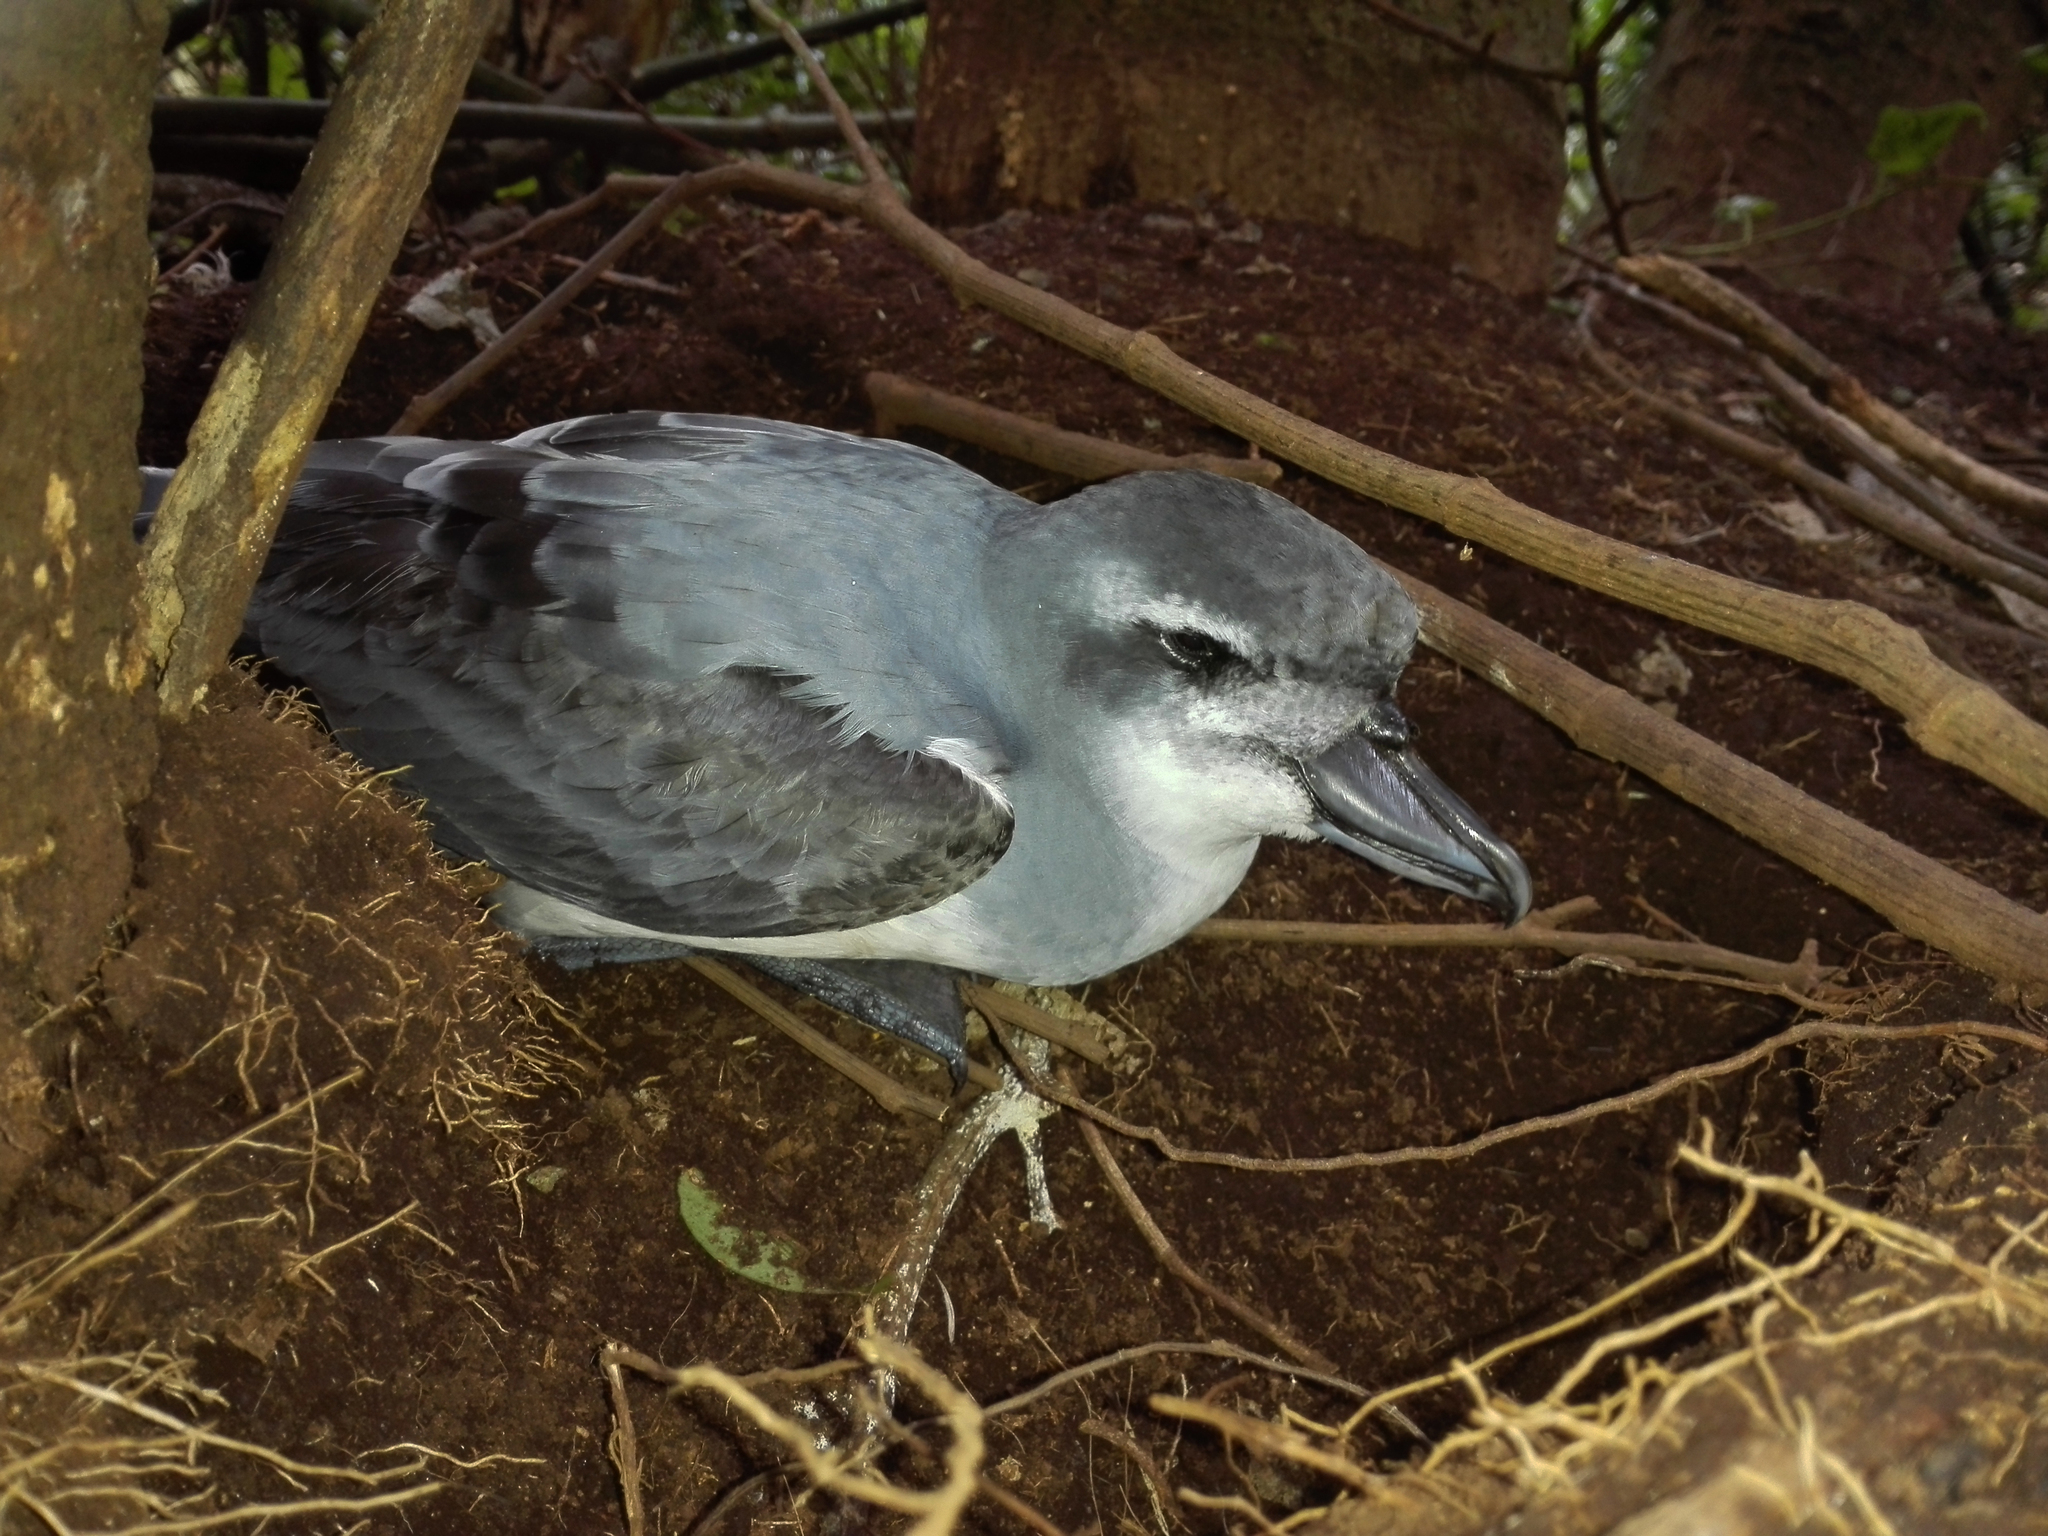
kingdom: Animalia
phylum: Chordata
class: Aves
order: Procellariiformes
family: Procellariidae
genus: Pachyptila
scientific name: Pachyptila vittata
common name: Broad-billed prion
